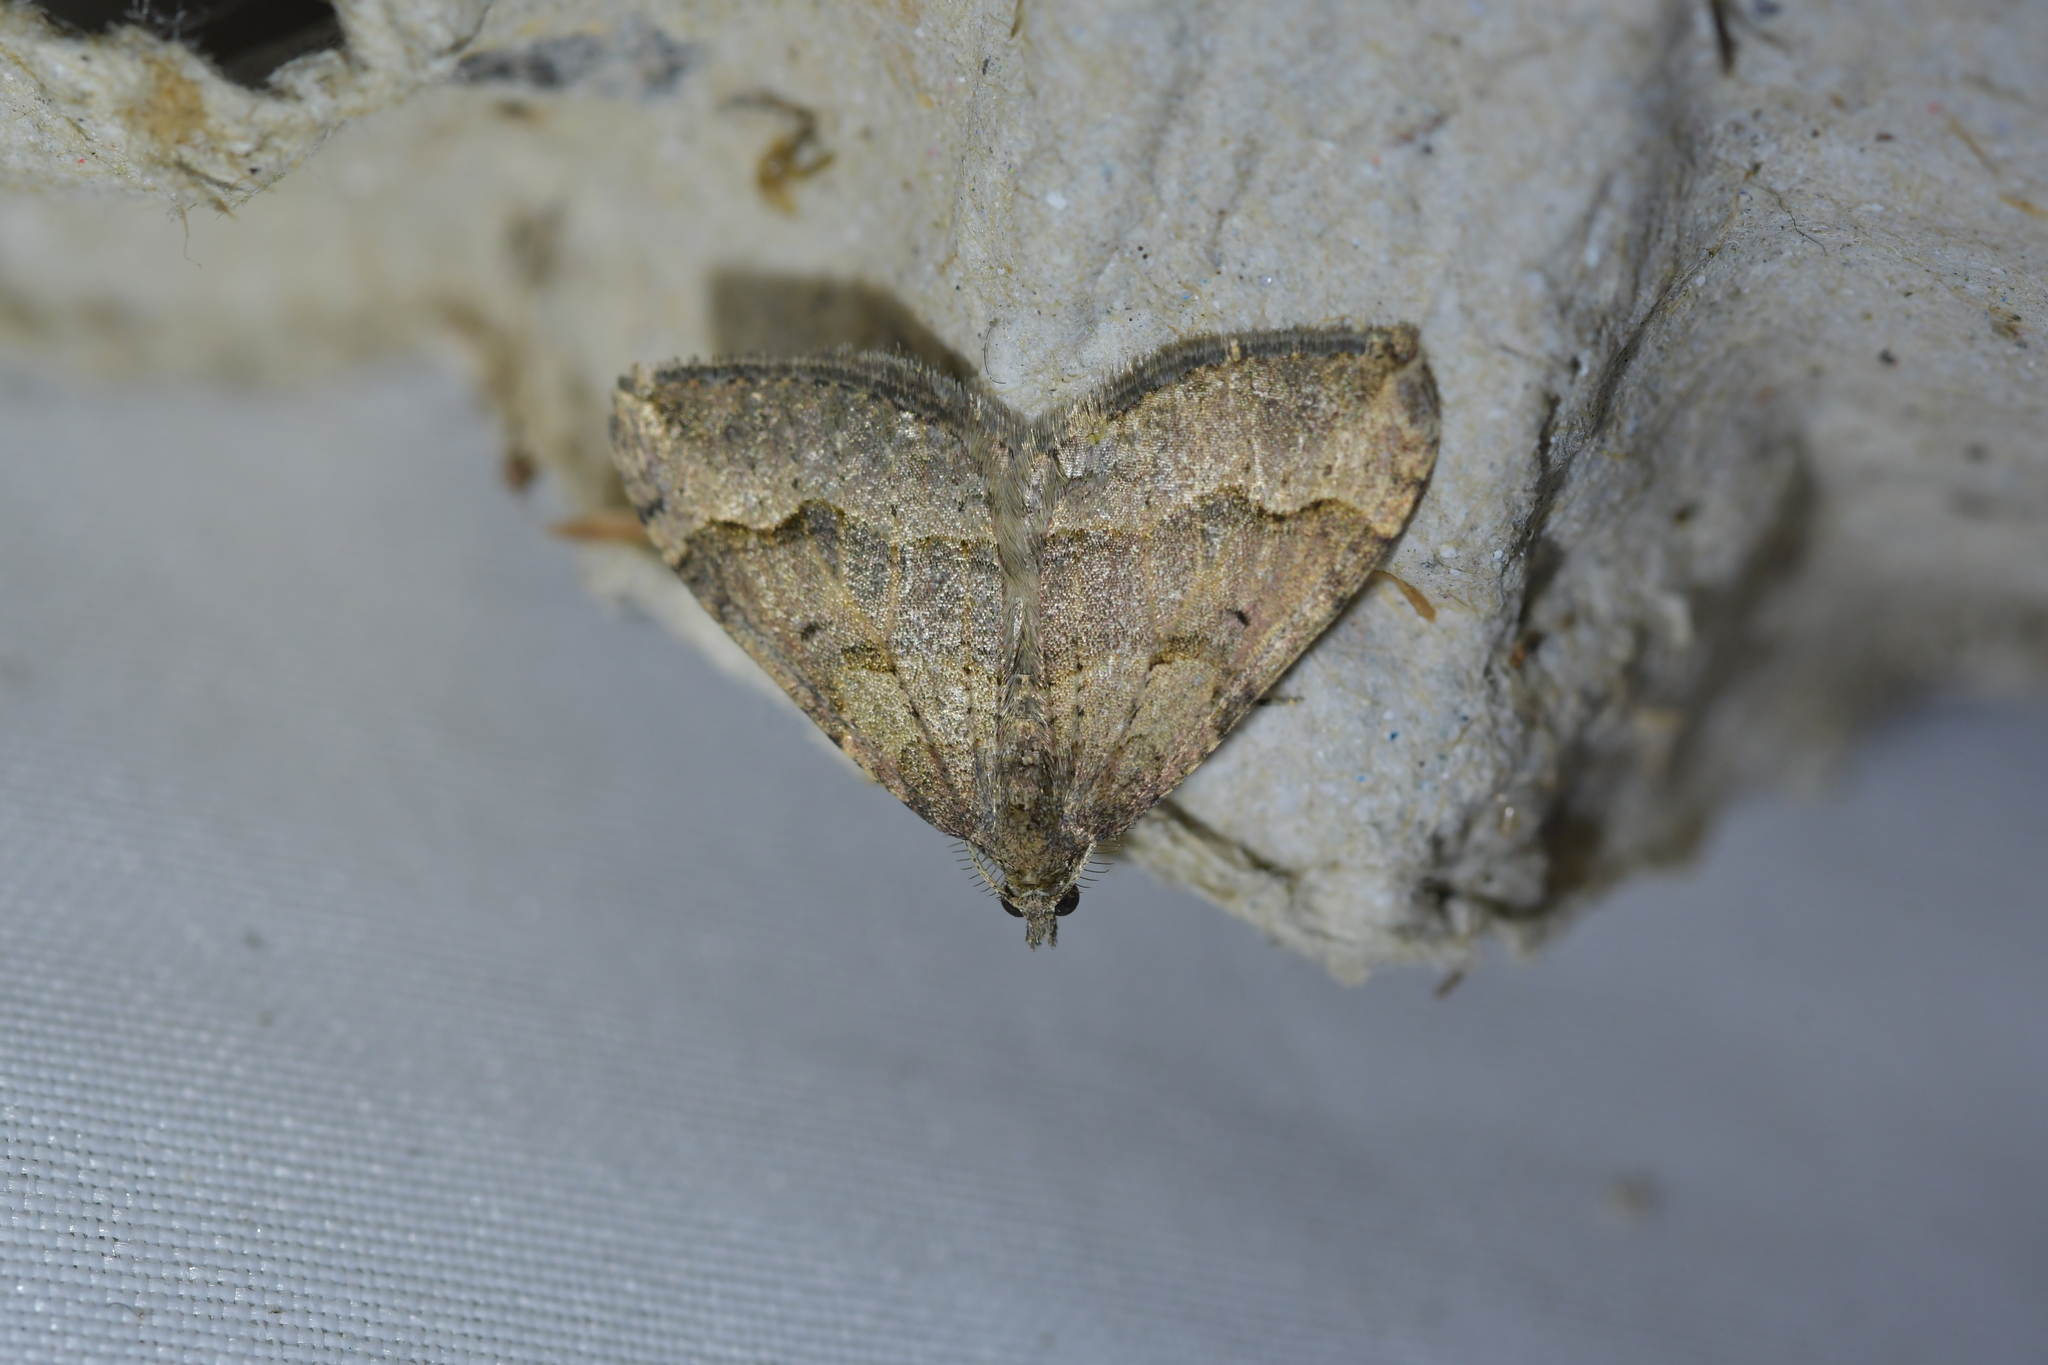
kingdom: Animalia
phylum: Arthropoda
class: Insecta
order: Lepidoptera
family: Geometridae
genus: Epyaxa
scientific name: Epyaxa rosearia
